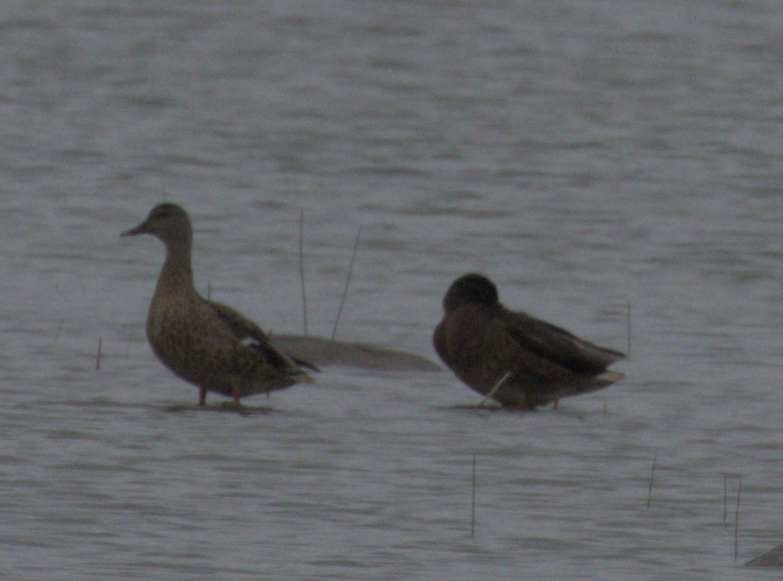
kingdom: Animalia
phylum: Chordata
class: Aves
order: Anseriformes
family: Anatidae
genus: Anas
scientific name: Anas platyrhynchos
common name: Mallard
